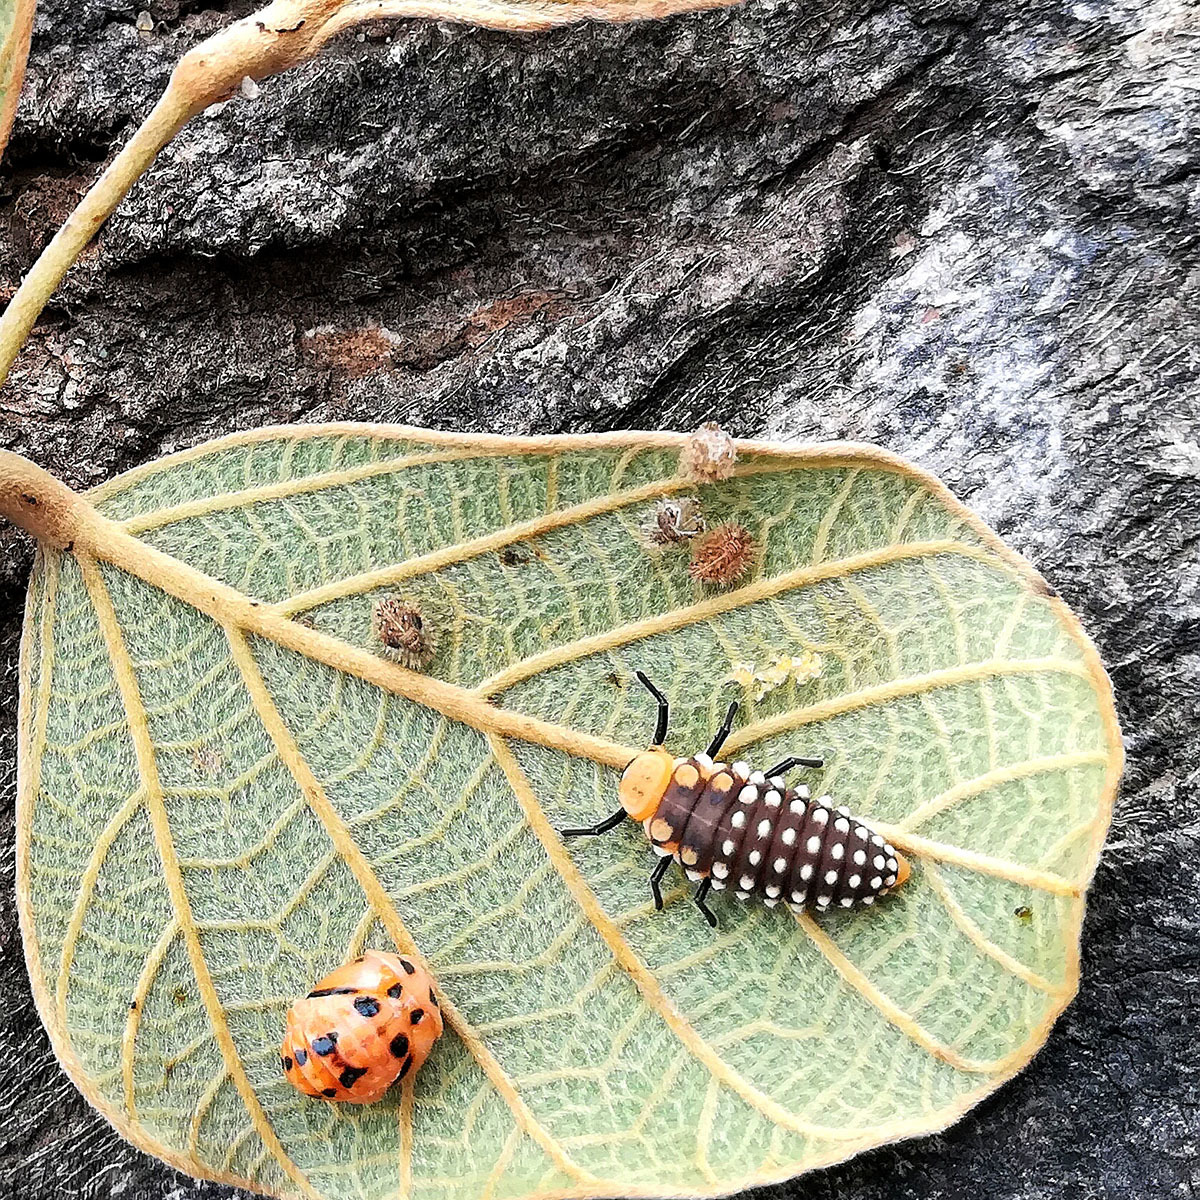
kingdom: Animalia
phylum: Arthropoda
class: Insecta
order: Coleoptera
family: Coccinellidae
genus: Cheilomenes
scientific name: Cheilomenes sexmaculata
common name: Ladybird beetle
